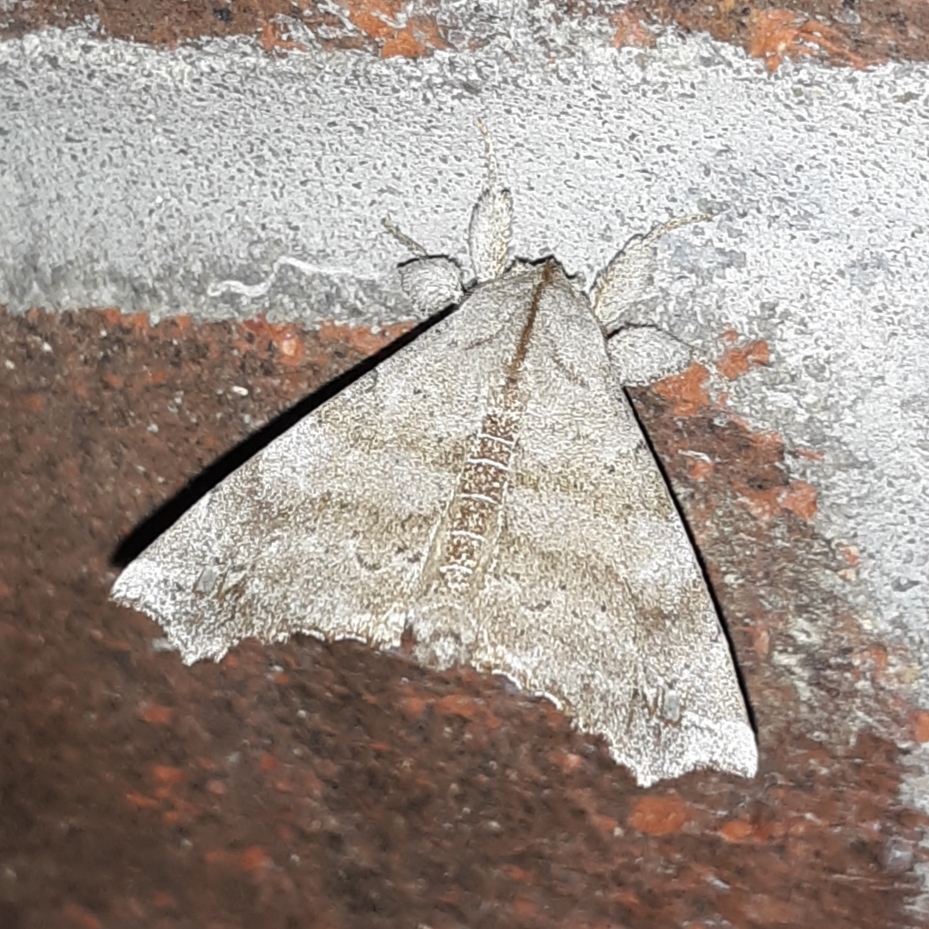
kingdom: Animalia
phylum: Arthropoda
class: Insecta
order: Lepidoptera
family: Apatelodidae
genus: Olceclostera
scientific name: Olceclostera angelica
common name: Angel moth
